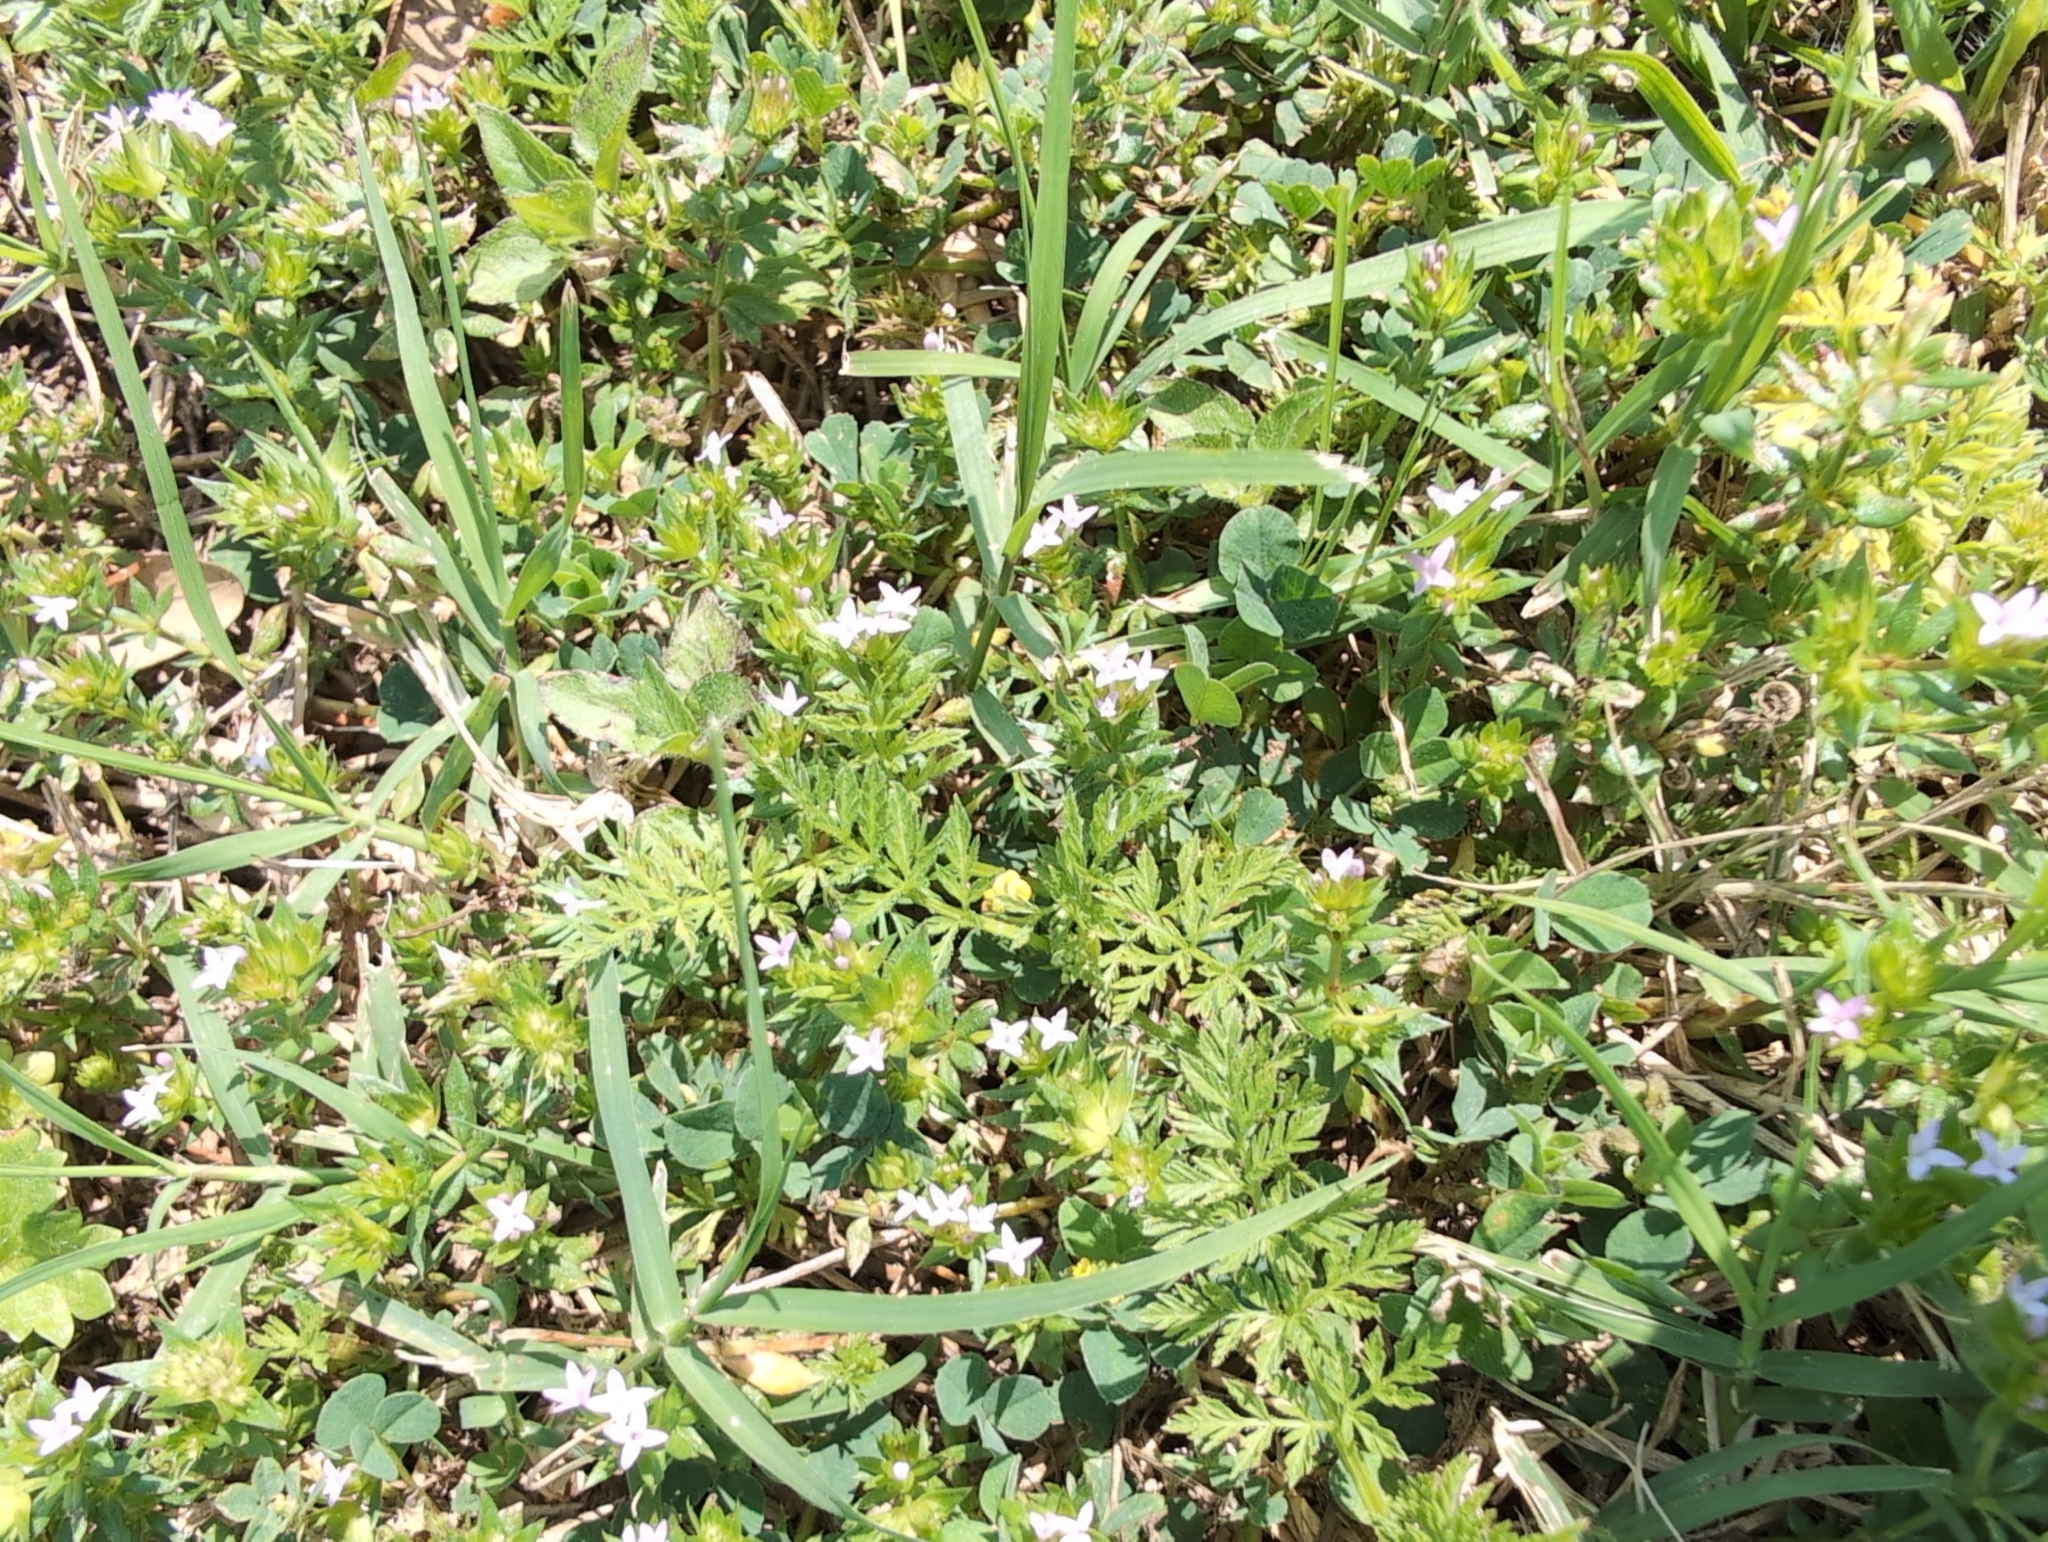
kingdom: Plantae
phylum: Tracheophyta
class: Magnoliopsida
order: Gentianales
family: Rubiaceae
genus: Sherardia
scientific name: Sherardia arvensis
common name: Field madder
